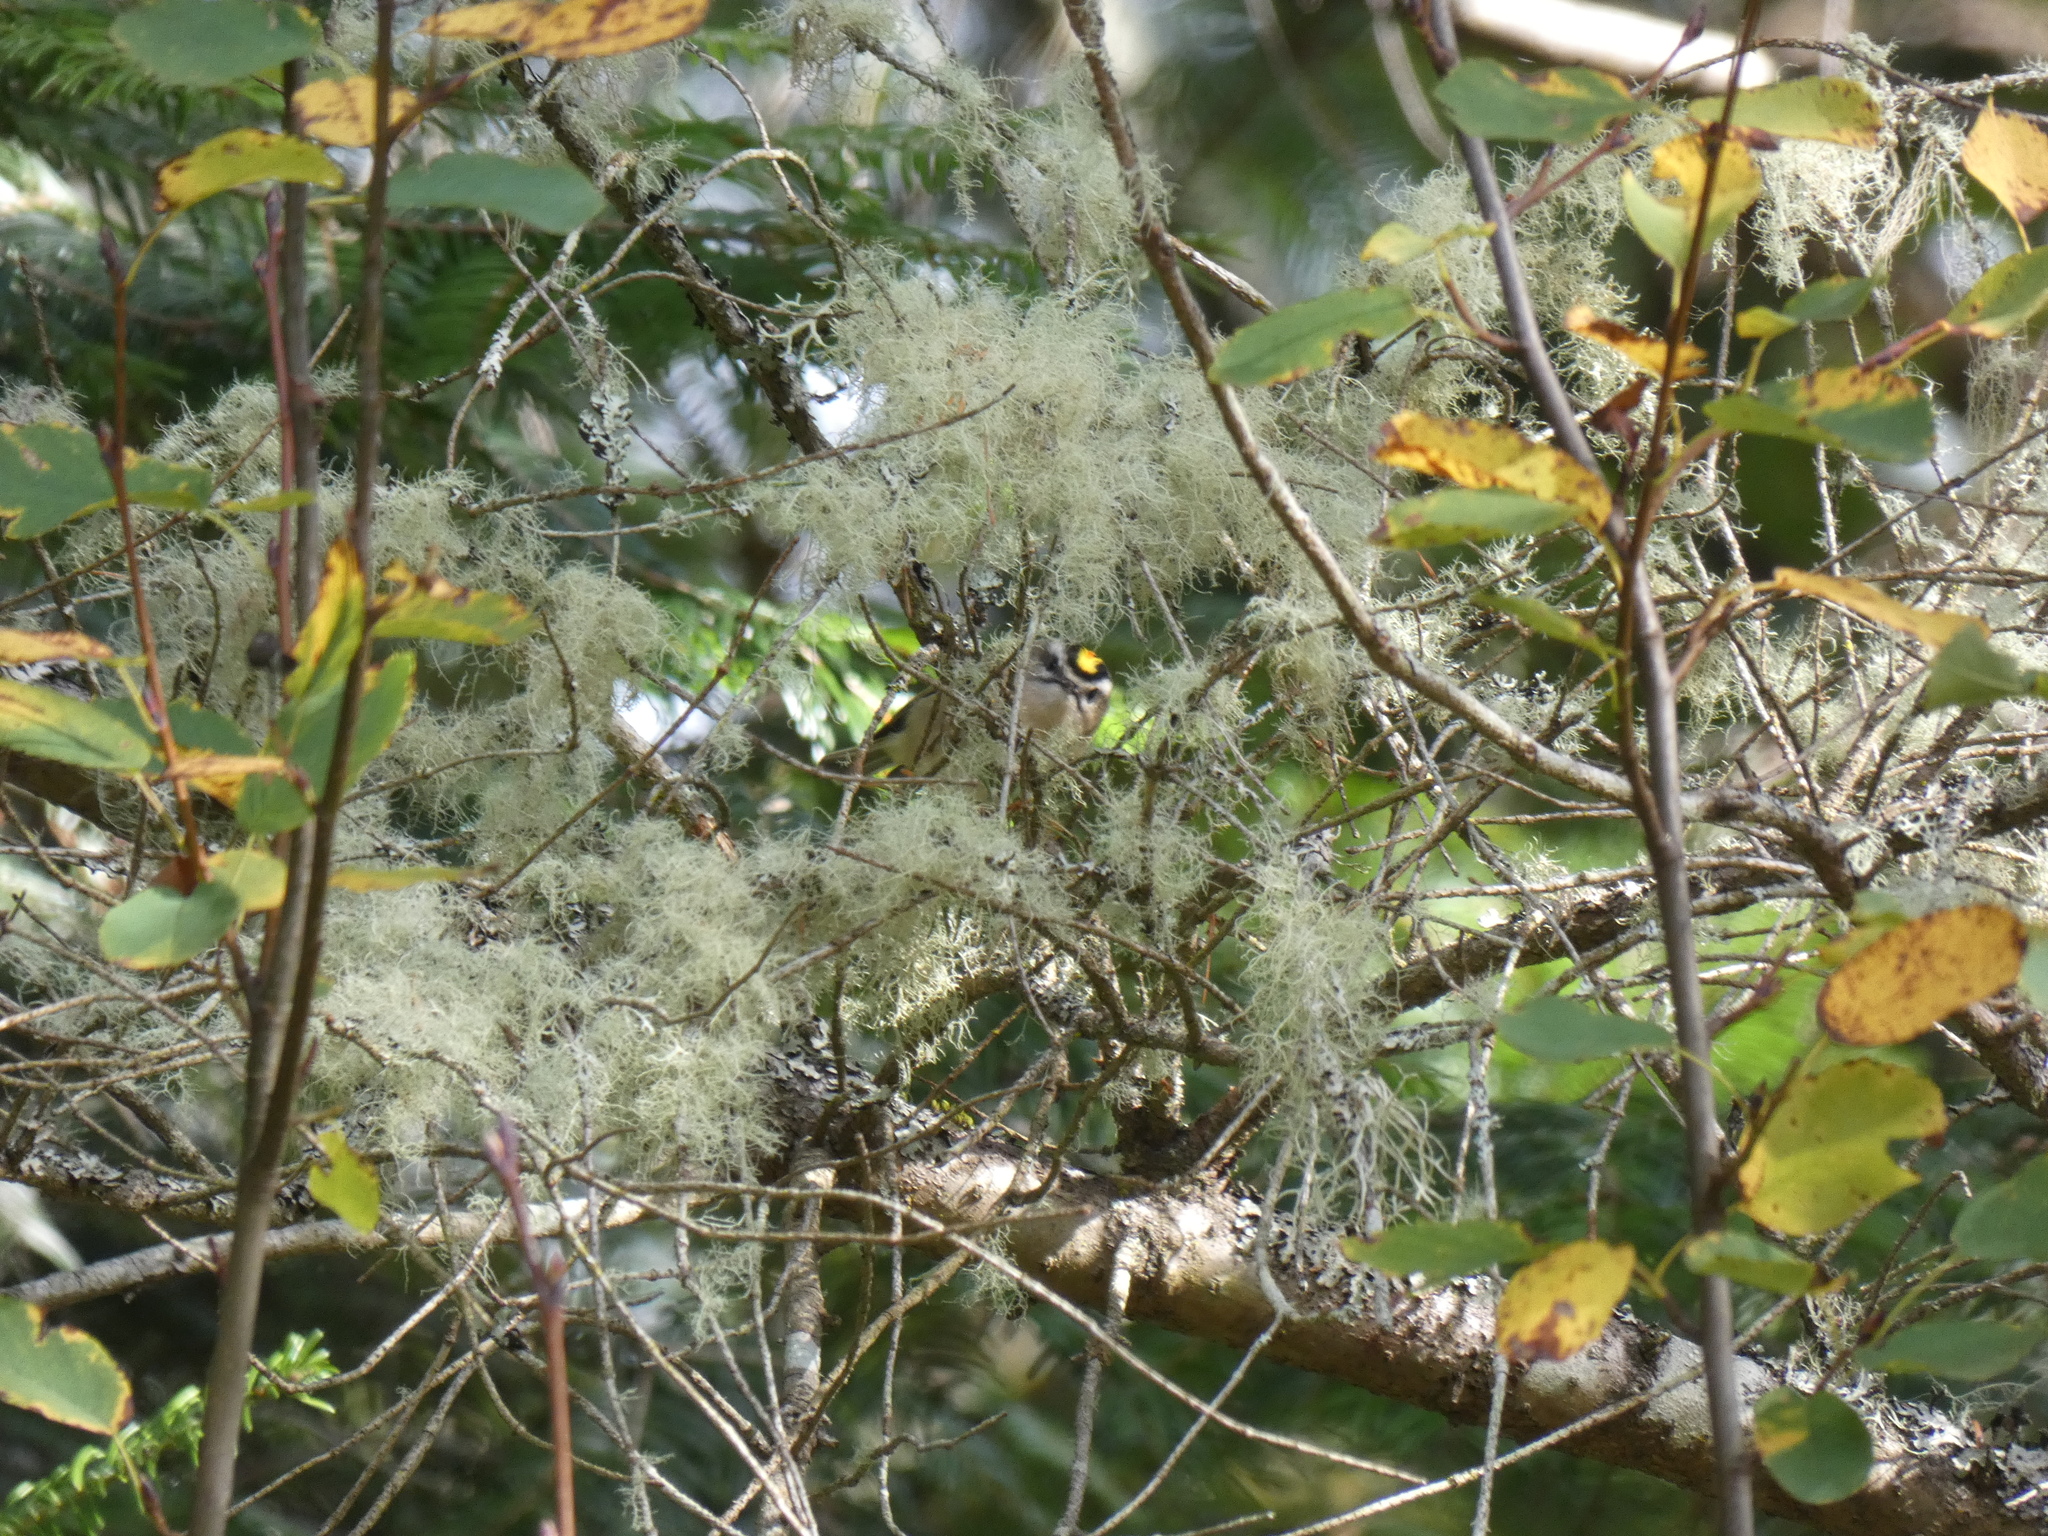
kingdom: Animalia
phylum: Chordata
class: Aves
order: Passeriformes
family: Regulidae
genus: Regulus
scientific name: Regulus satrapa
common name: Golden-crowned kinglet
